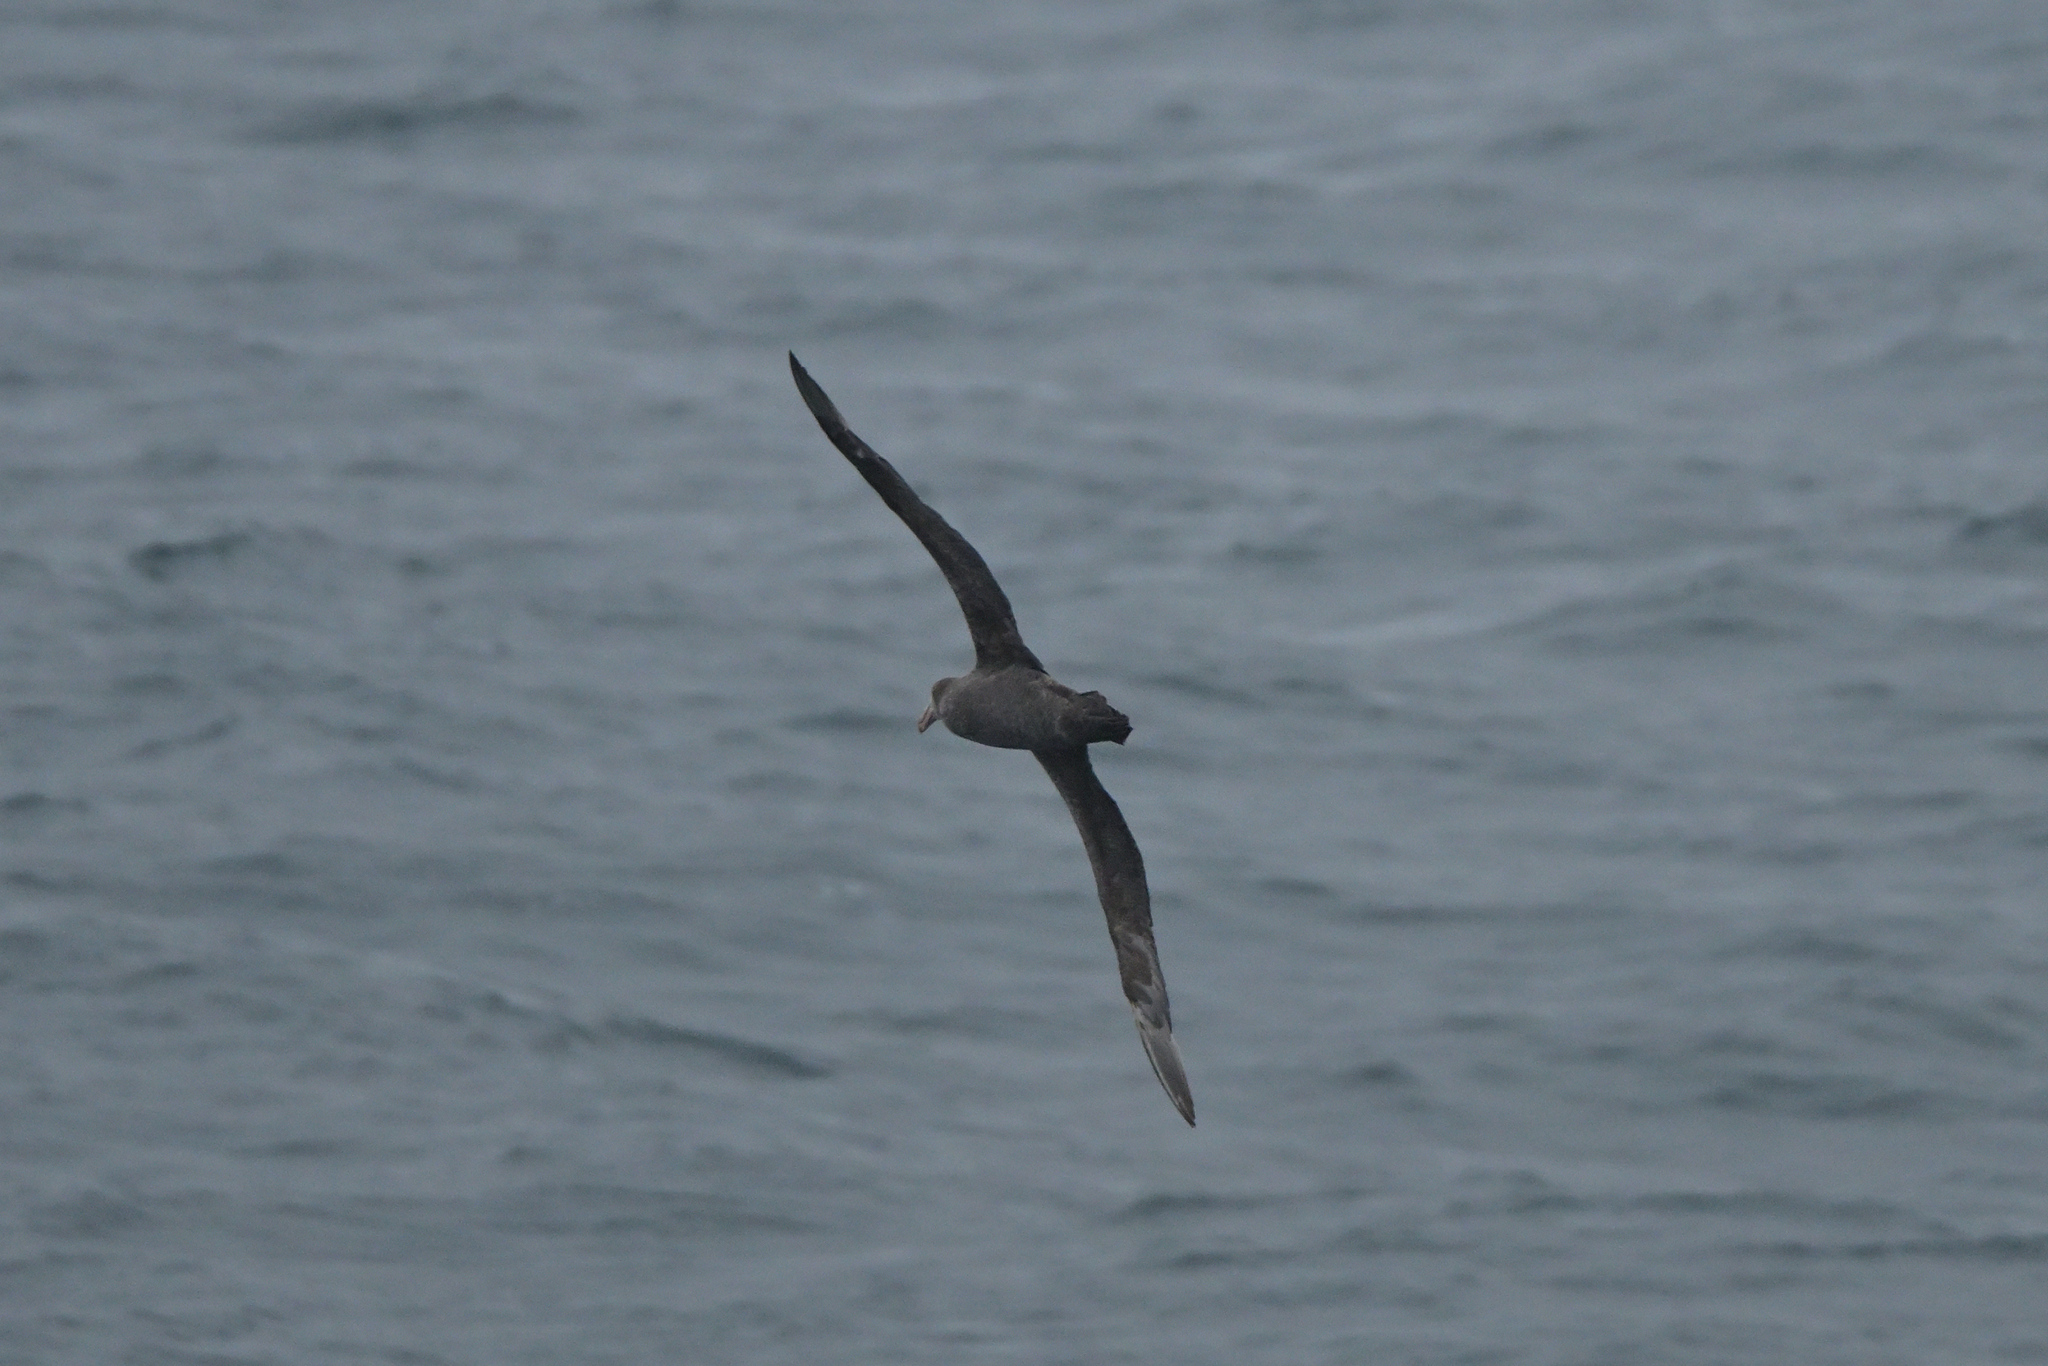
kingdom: Animalia
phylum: Chordata
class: Aves
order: Procellariiformes
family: Procellariidae
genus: Macronectes
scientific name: Macronectes halli
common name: Northern giant petrel
